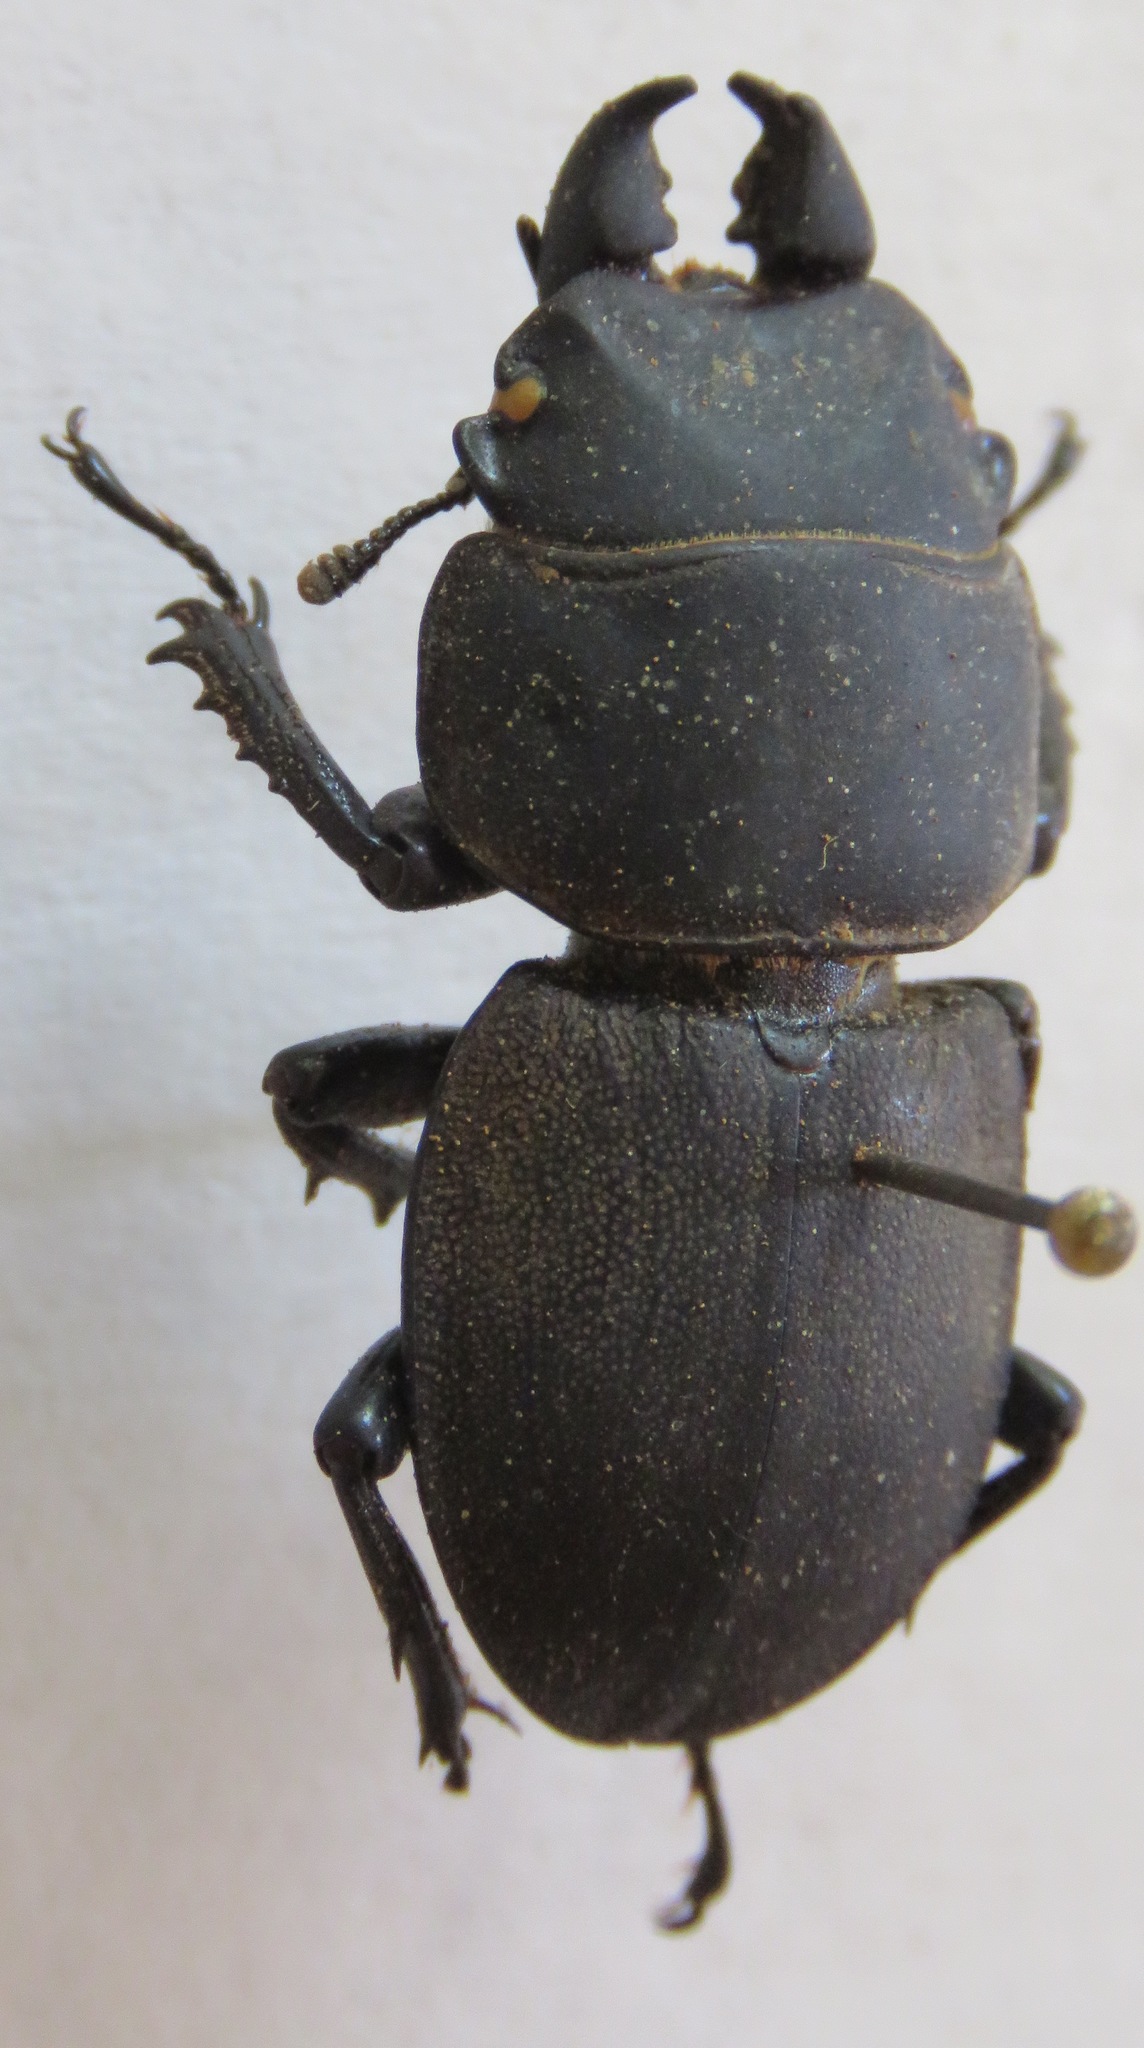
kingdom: Animalia
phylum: Arthropoda
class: Insecta
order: Coleoptera
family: Lucanidae
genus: Apterodorcus
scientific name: Apterodorcus bacchus
